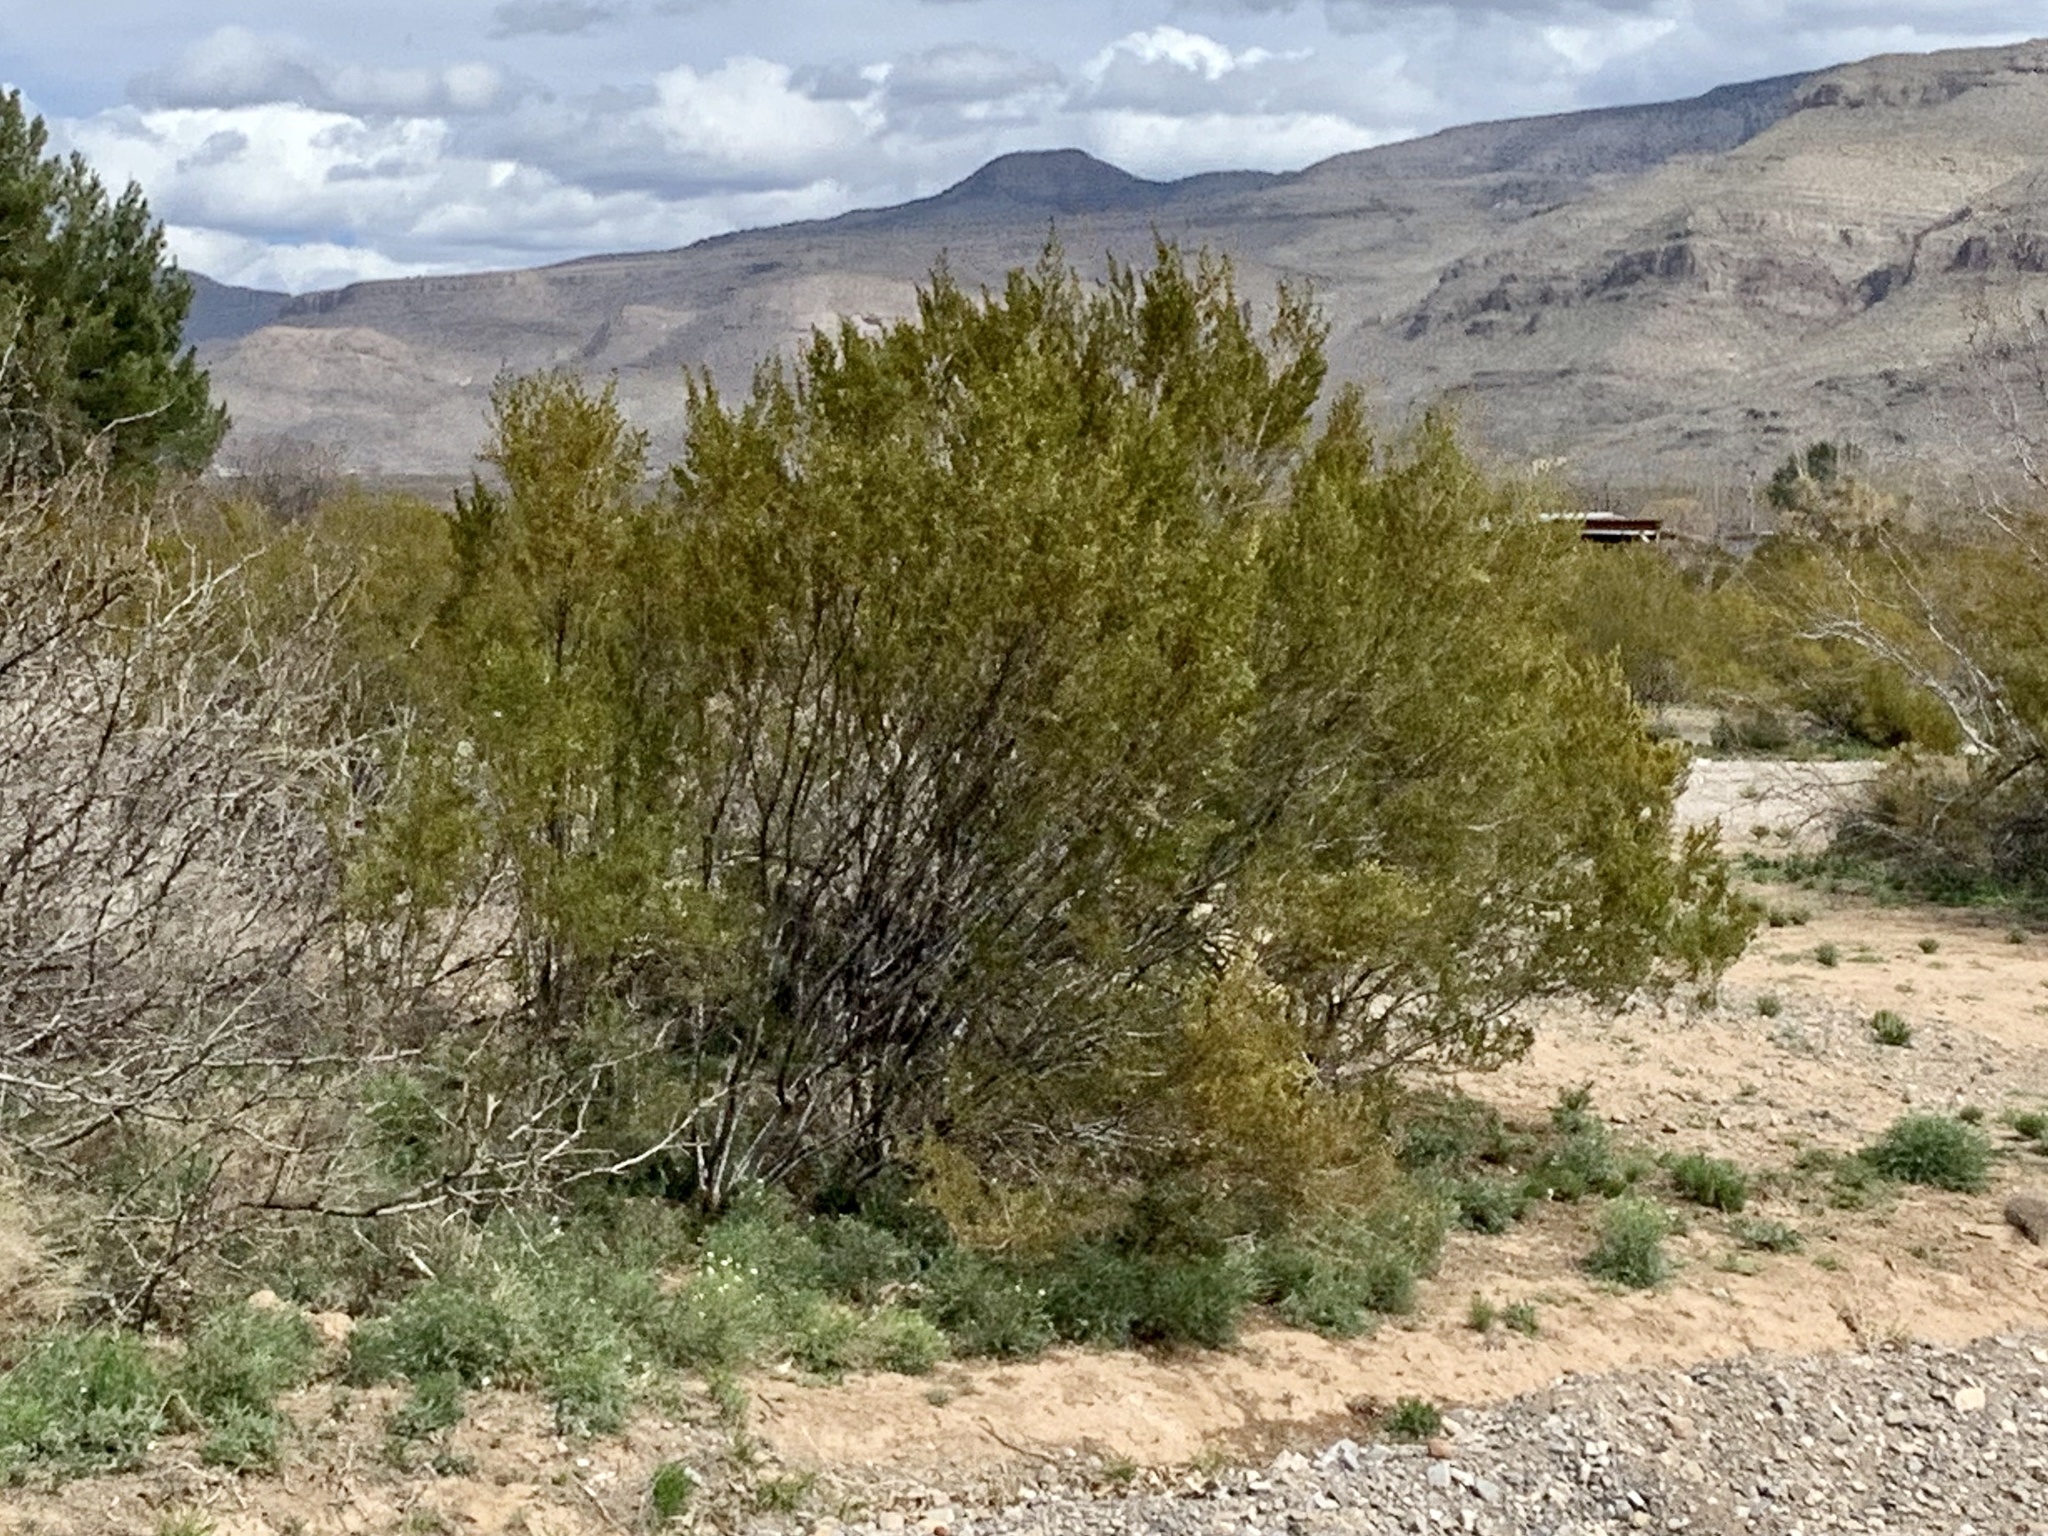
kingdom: Plantae
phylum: Tracheophyta
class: Magnoliopsida
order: Zygophyllales
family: Zygophyllaceae
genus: Larrea
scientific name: Larrea tridentata
